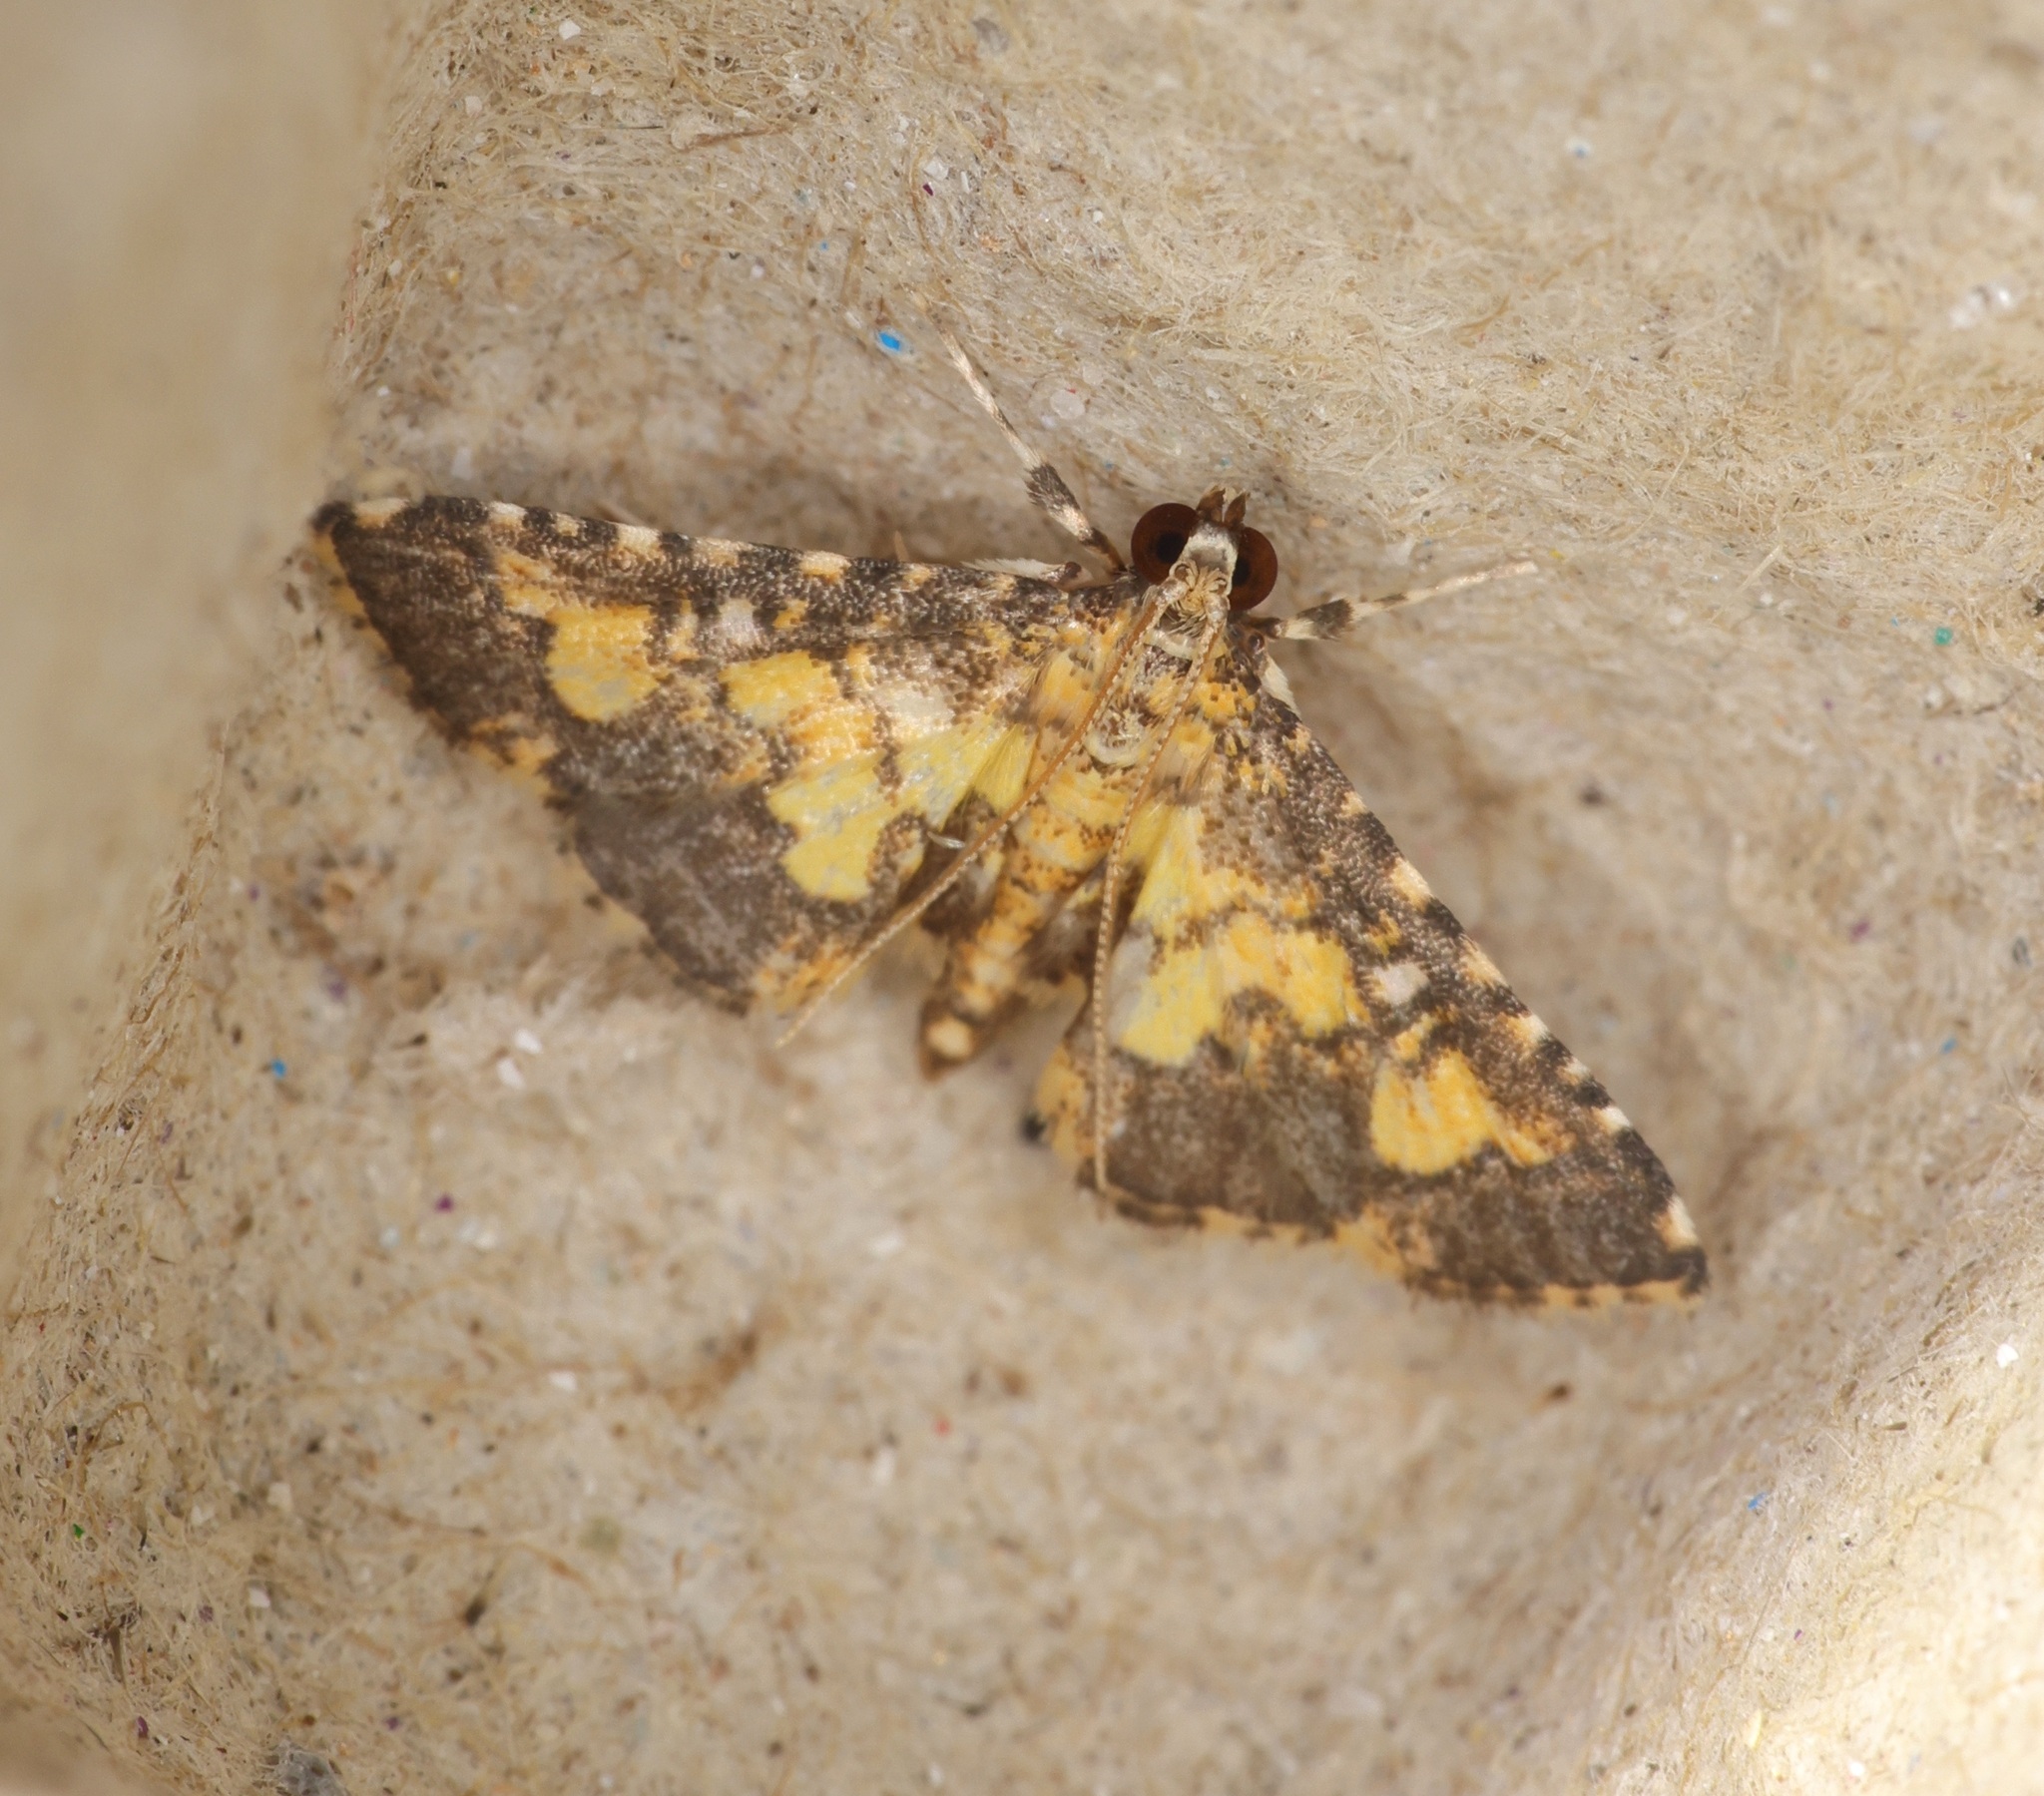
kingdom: Animalia
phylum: Arthropoda
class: Insecta
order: Lepidoptera
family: Crambidae
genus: Nacoleia
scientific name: Nacoleia
